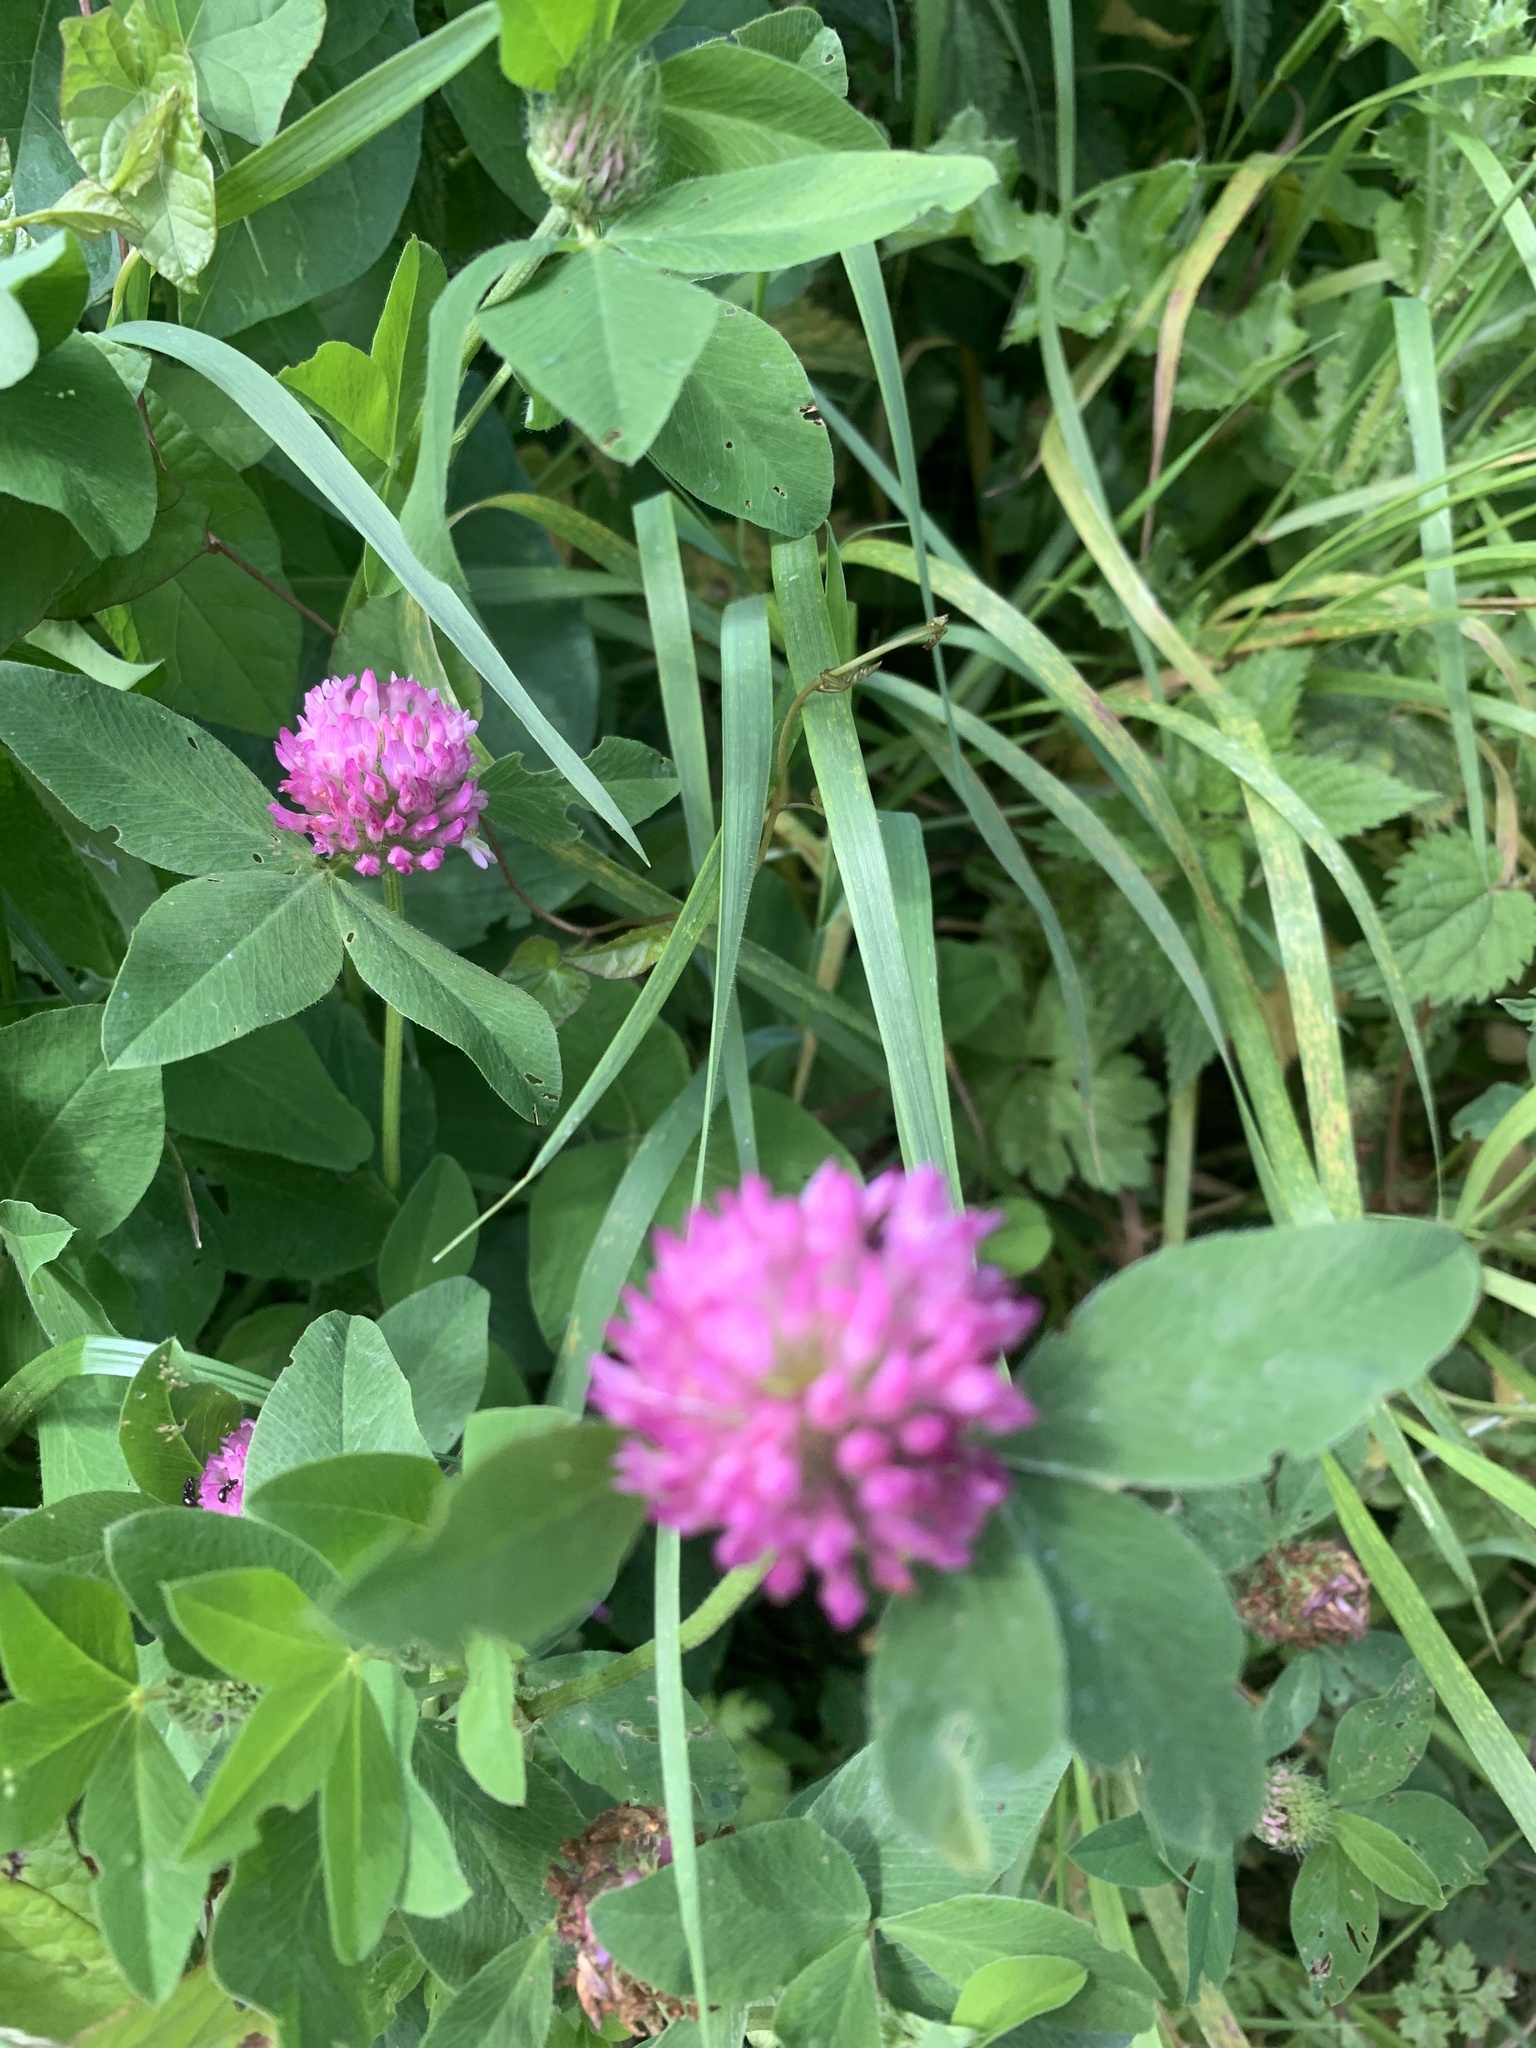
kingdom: Plantae
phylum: Tracheophyta
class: Magnoliopsida
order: Fabales
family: Fabaceae
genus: Trifolium
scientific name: Trifolium pratense
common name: Red clover
